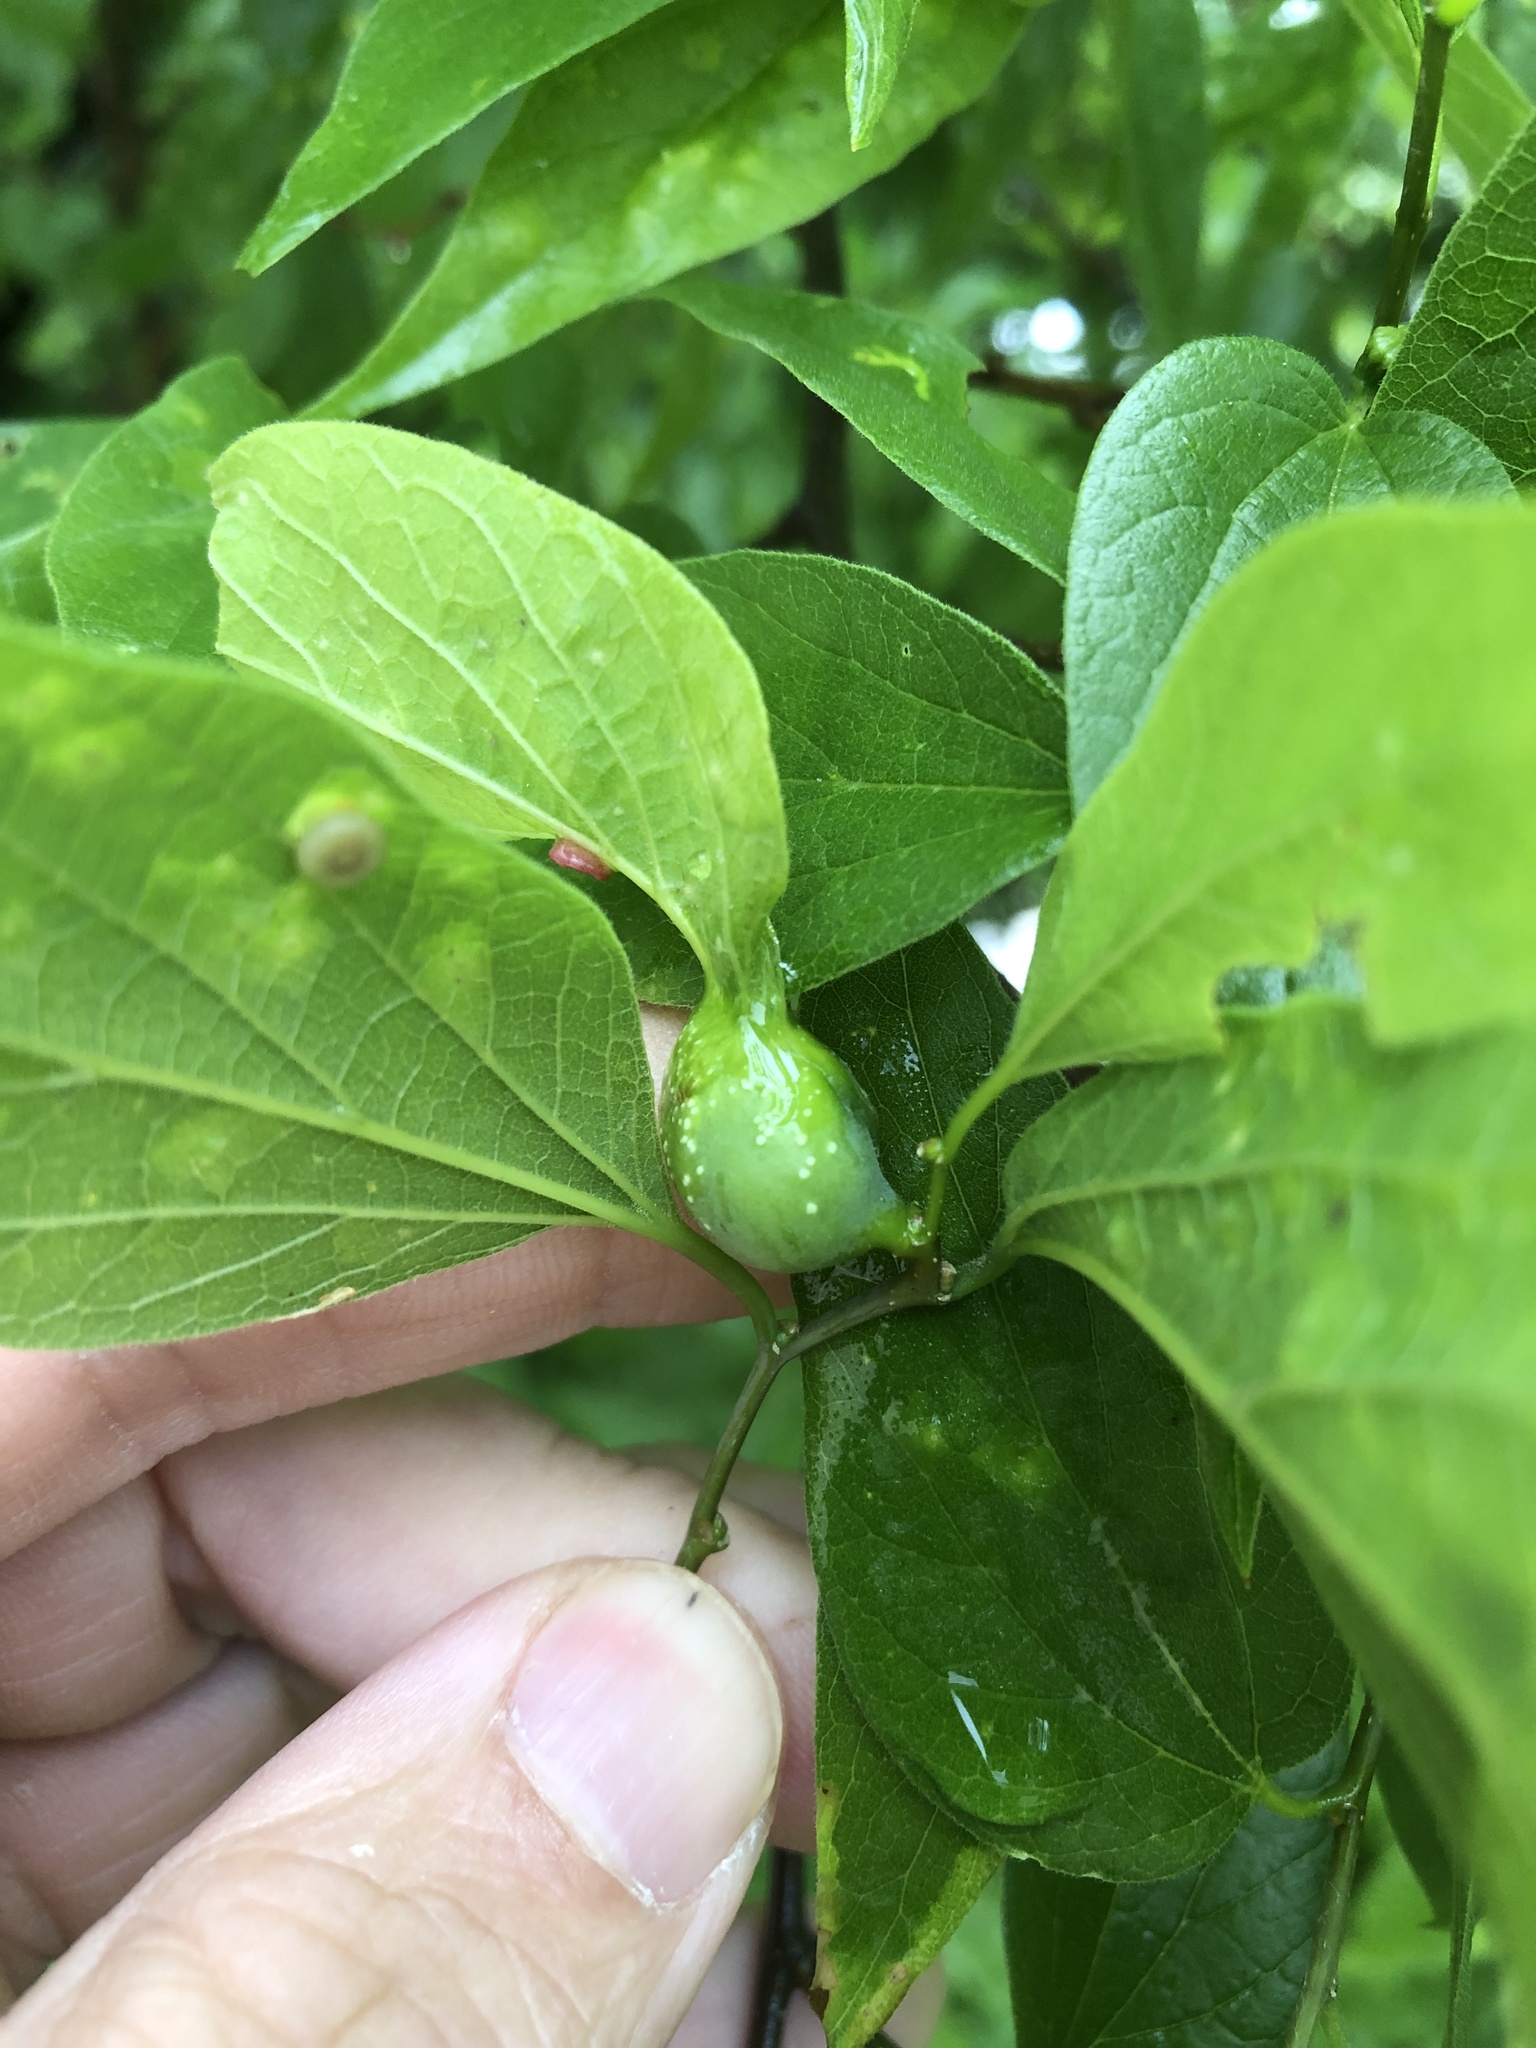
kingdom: Animalia
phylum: Arthropoda
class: Insecta
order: Hemiptera
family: Aphalaridae
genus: Pachypsylla
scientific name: Pachypsylla venusta
